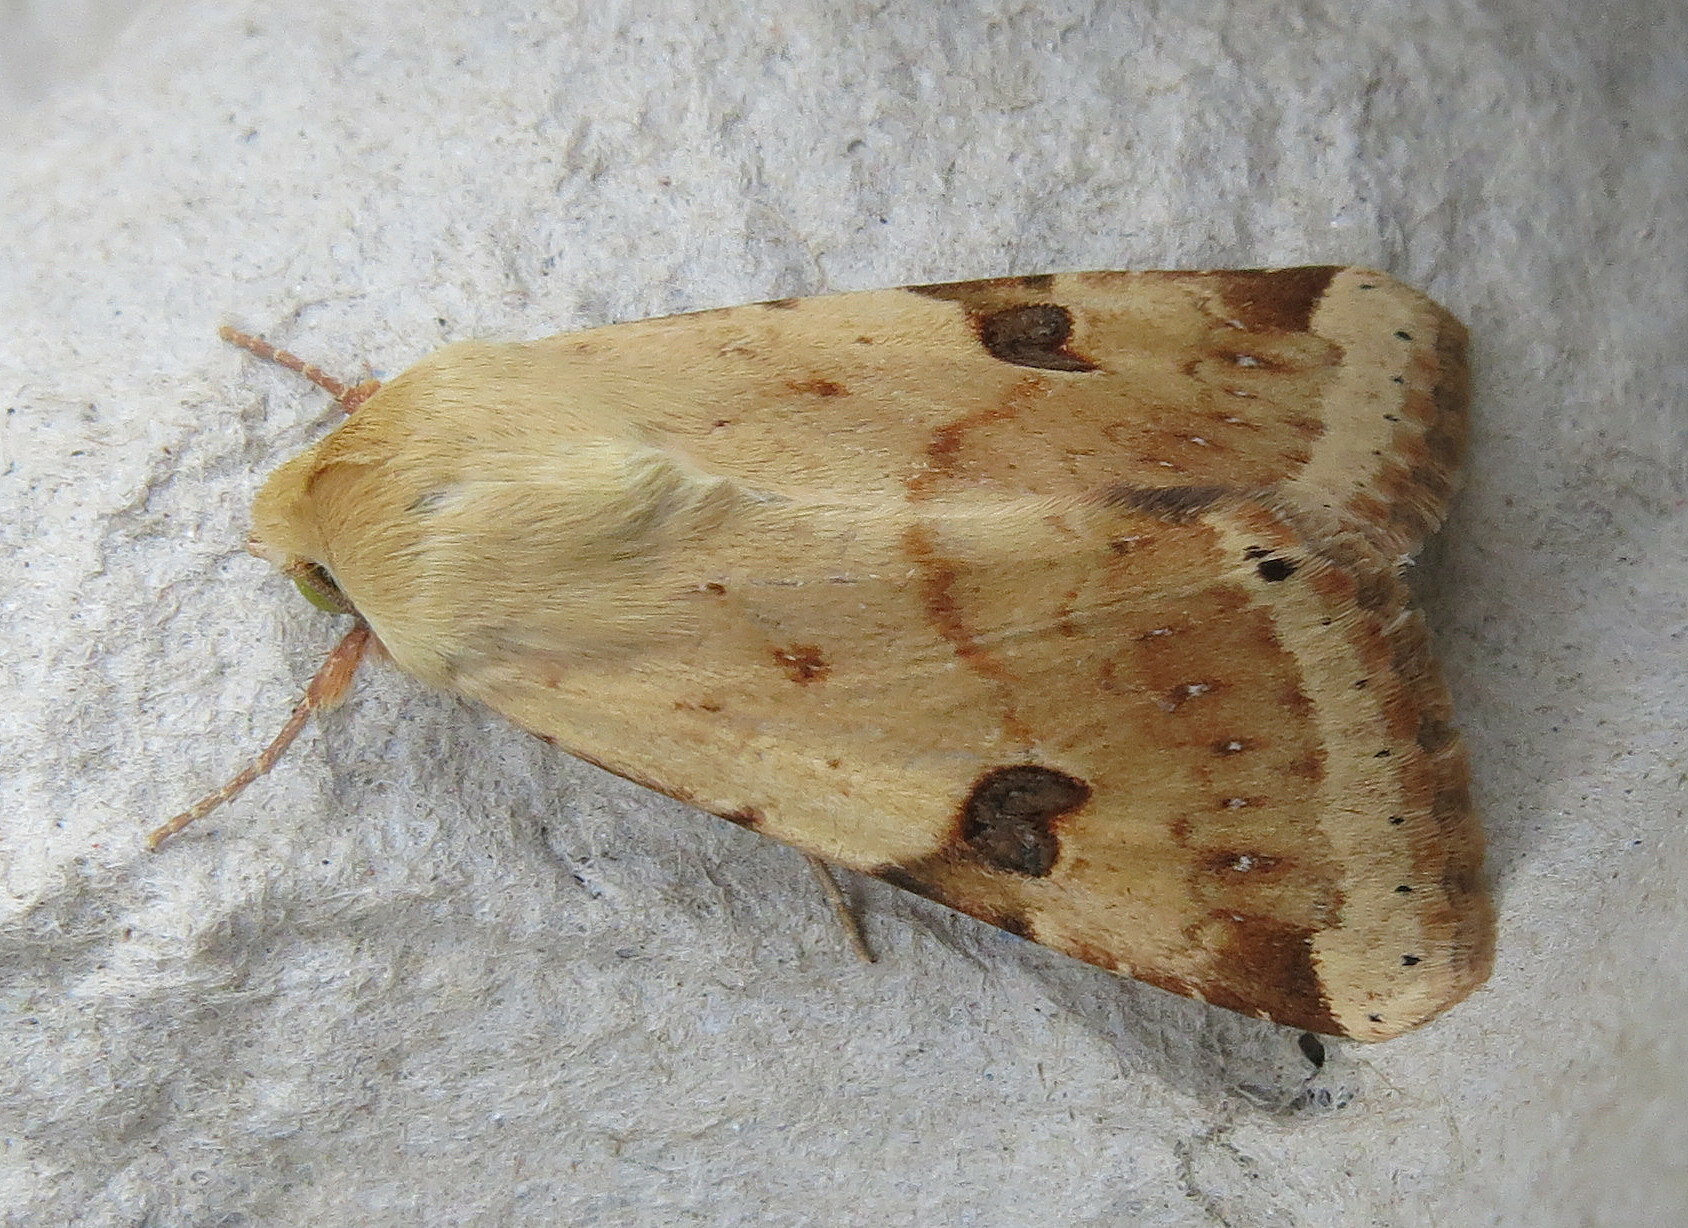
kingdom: Animalia
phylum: Arthropoda
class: Insecta
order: Lepidoptera
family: Noctuidae
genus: Heliothis
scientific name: Heliothis peltigera
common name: Bordered straw
